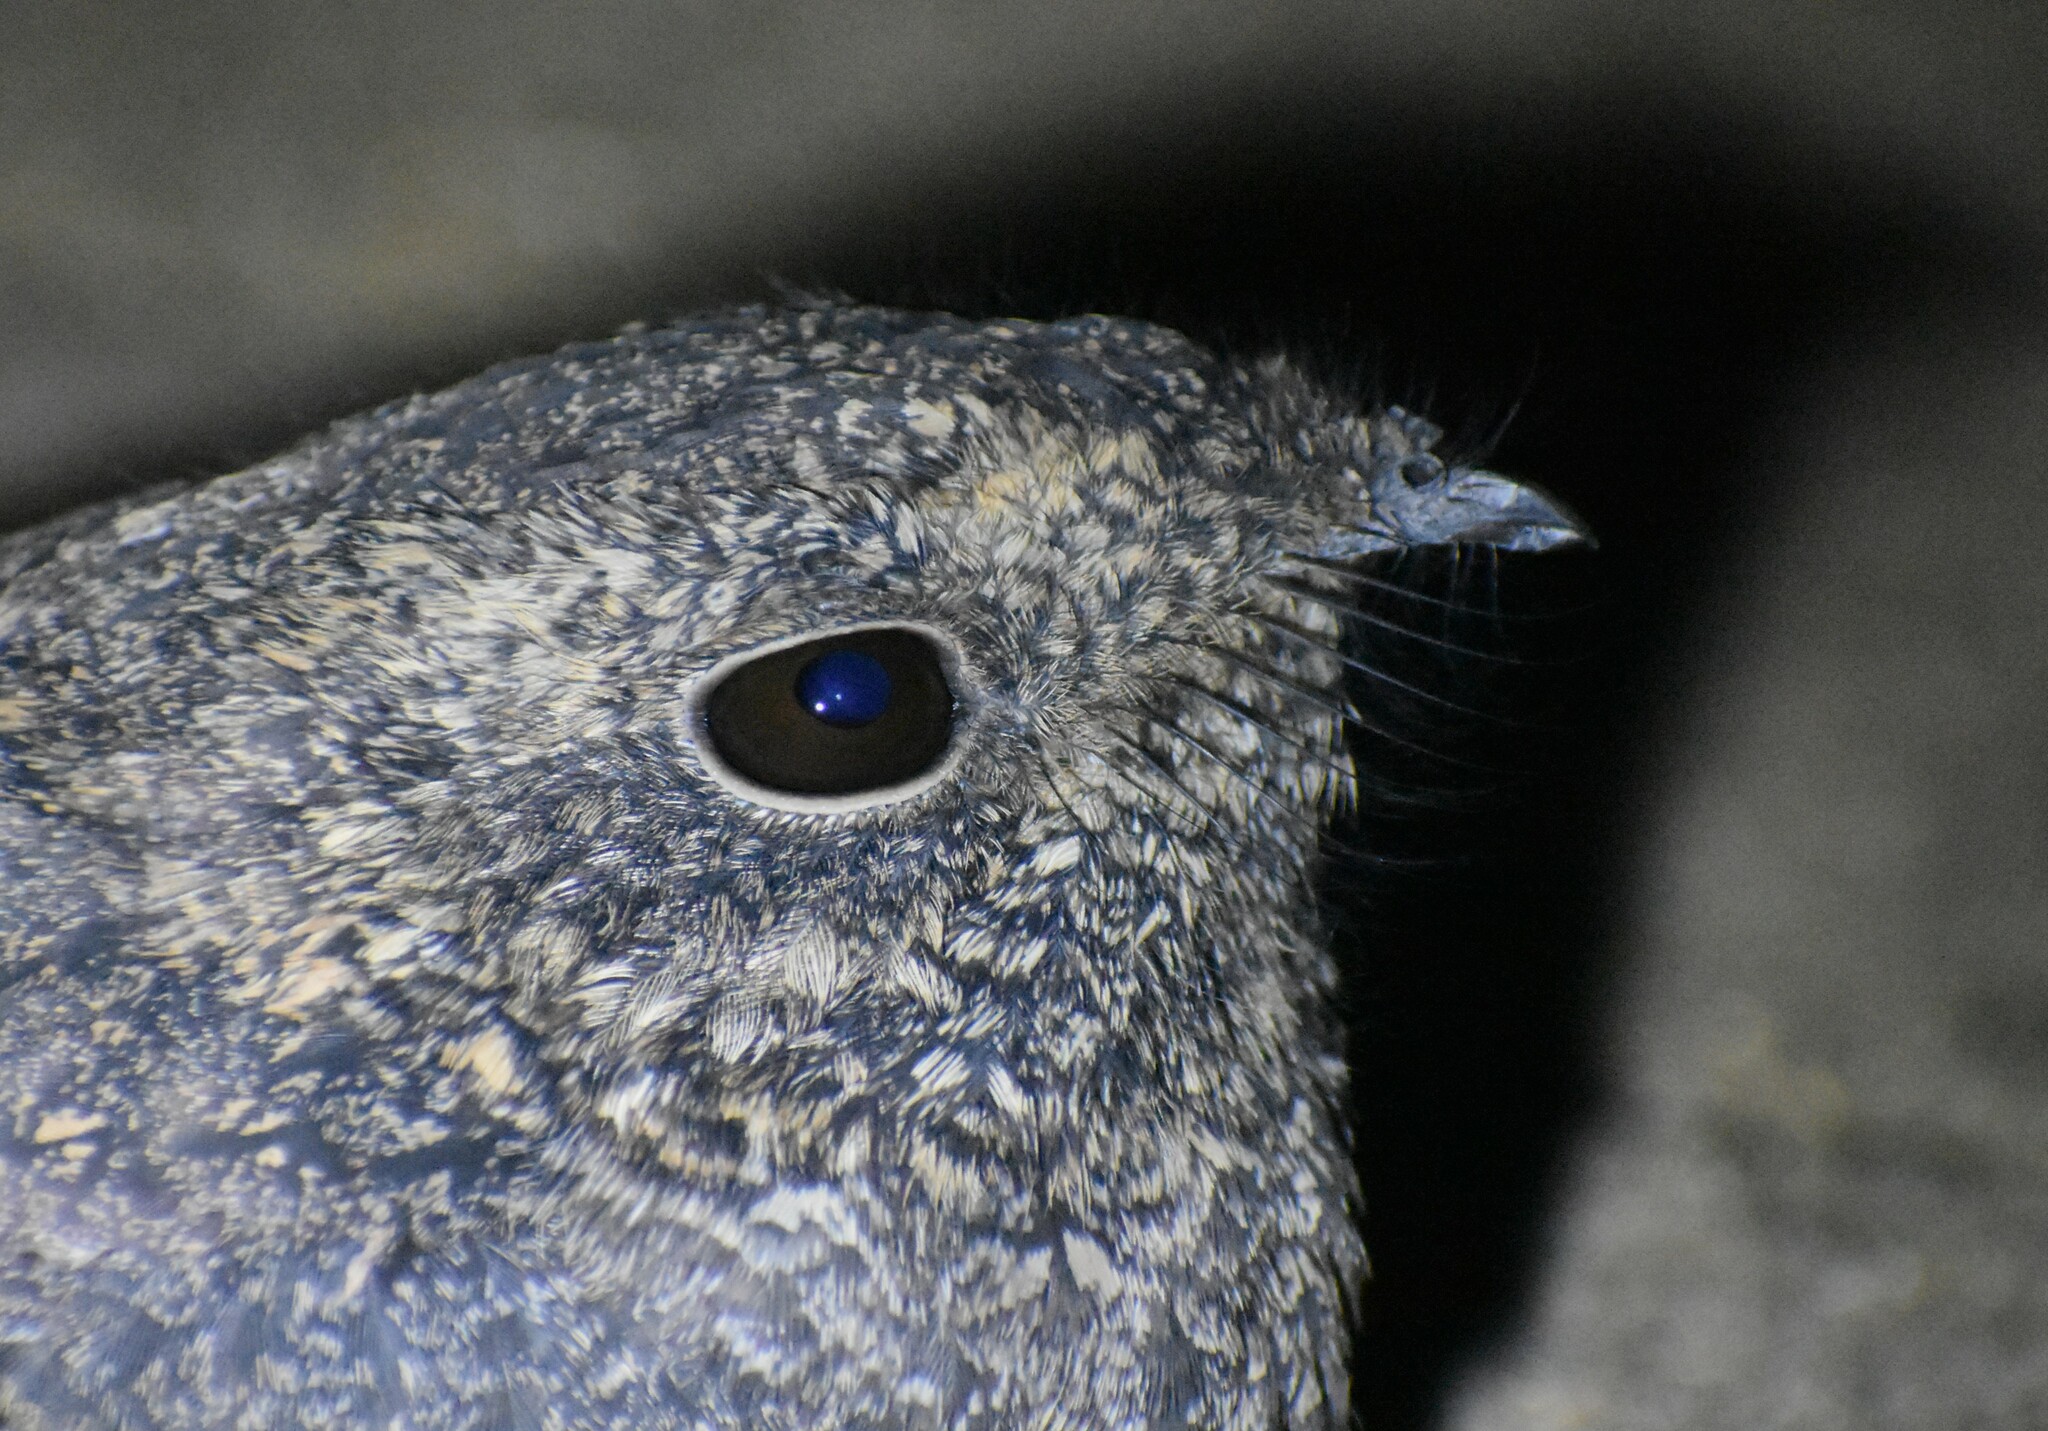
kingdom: Animalia
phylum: Chordata
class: Aves
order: Caprimulgiformes
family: Caprimulgidae
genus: Caprimulgus
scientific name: Caprimulgus tristigma
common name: Freckled nightjar
